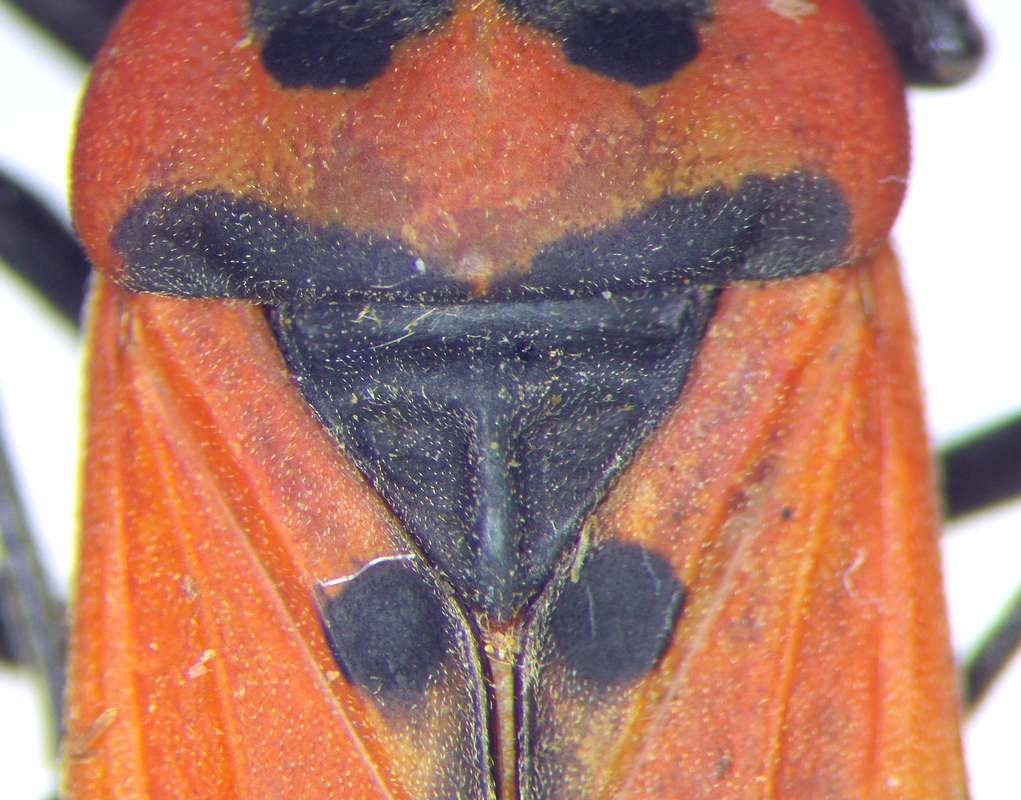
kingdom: Animalia
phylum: Arthropoda
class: Insecta
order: Hemiptera
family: Lygaeidae
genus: Lygaeus
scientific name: Lygaeus equestris
